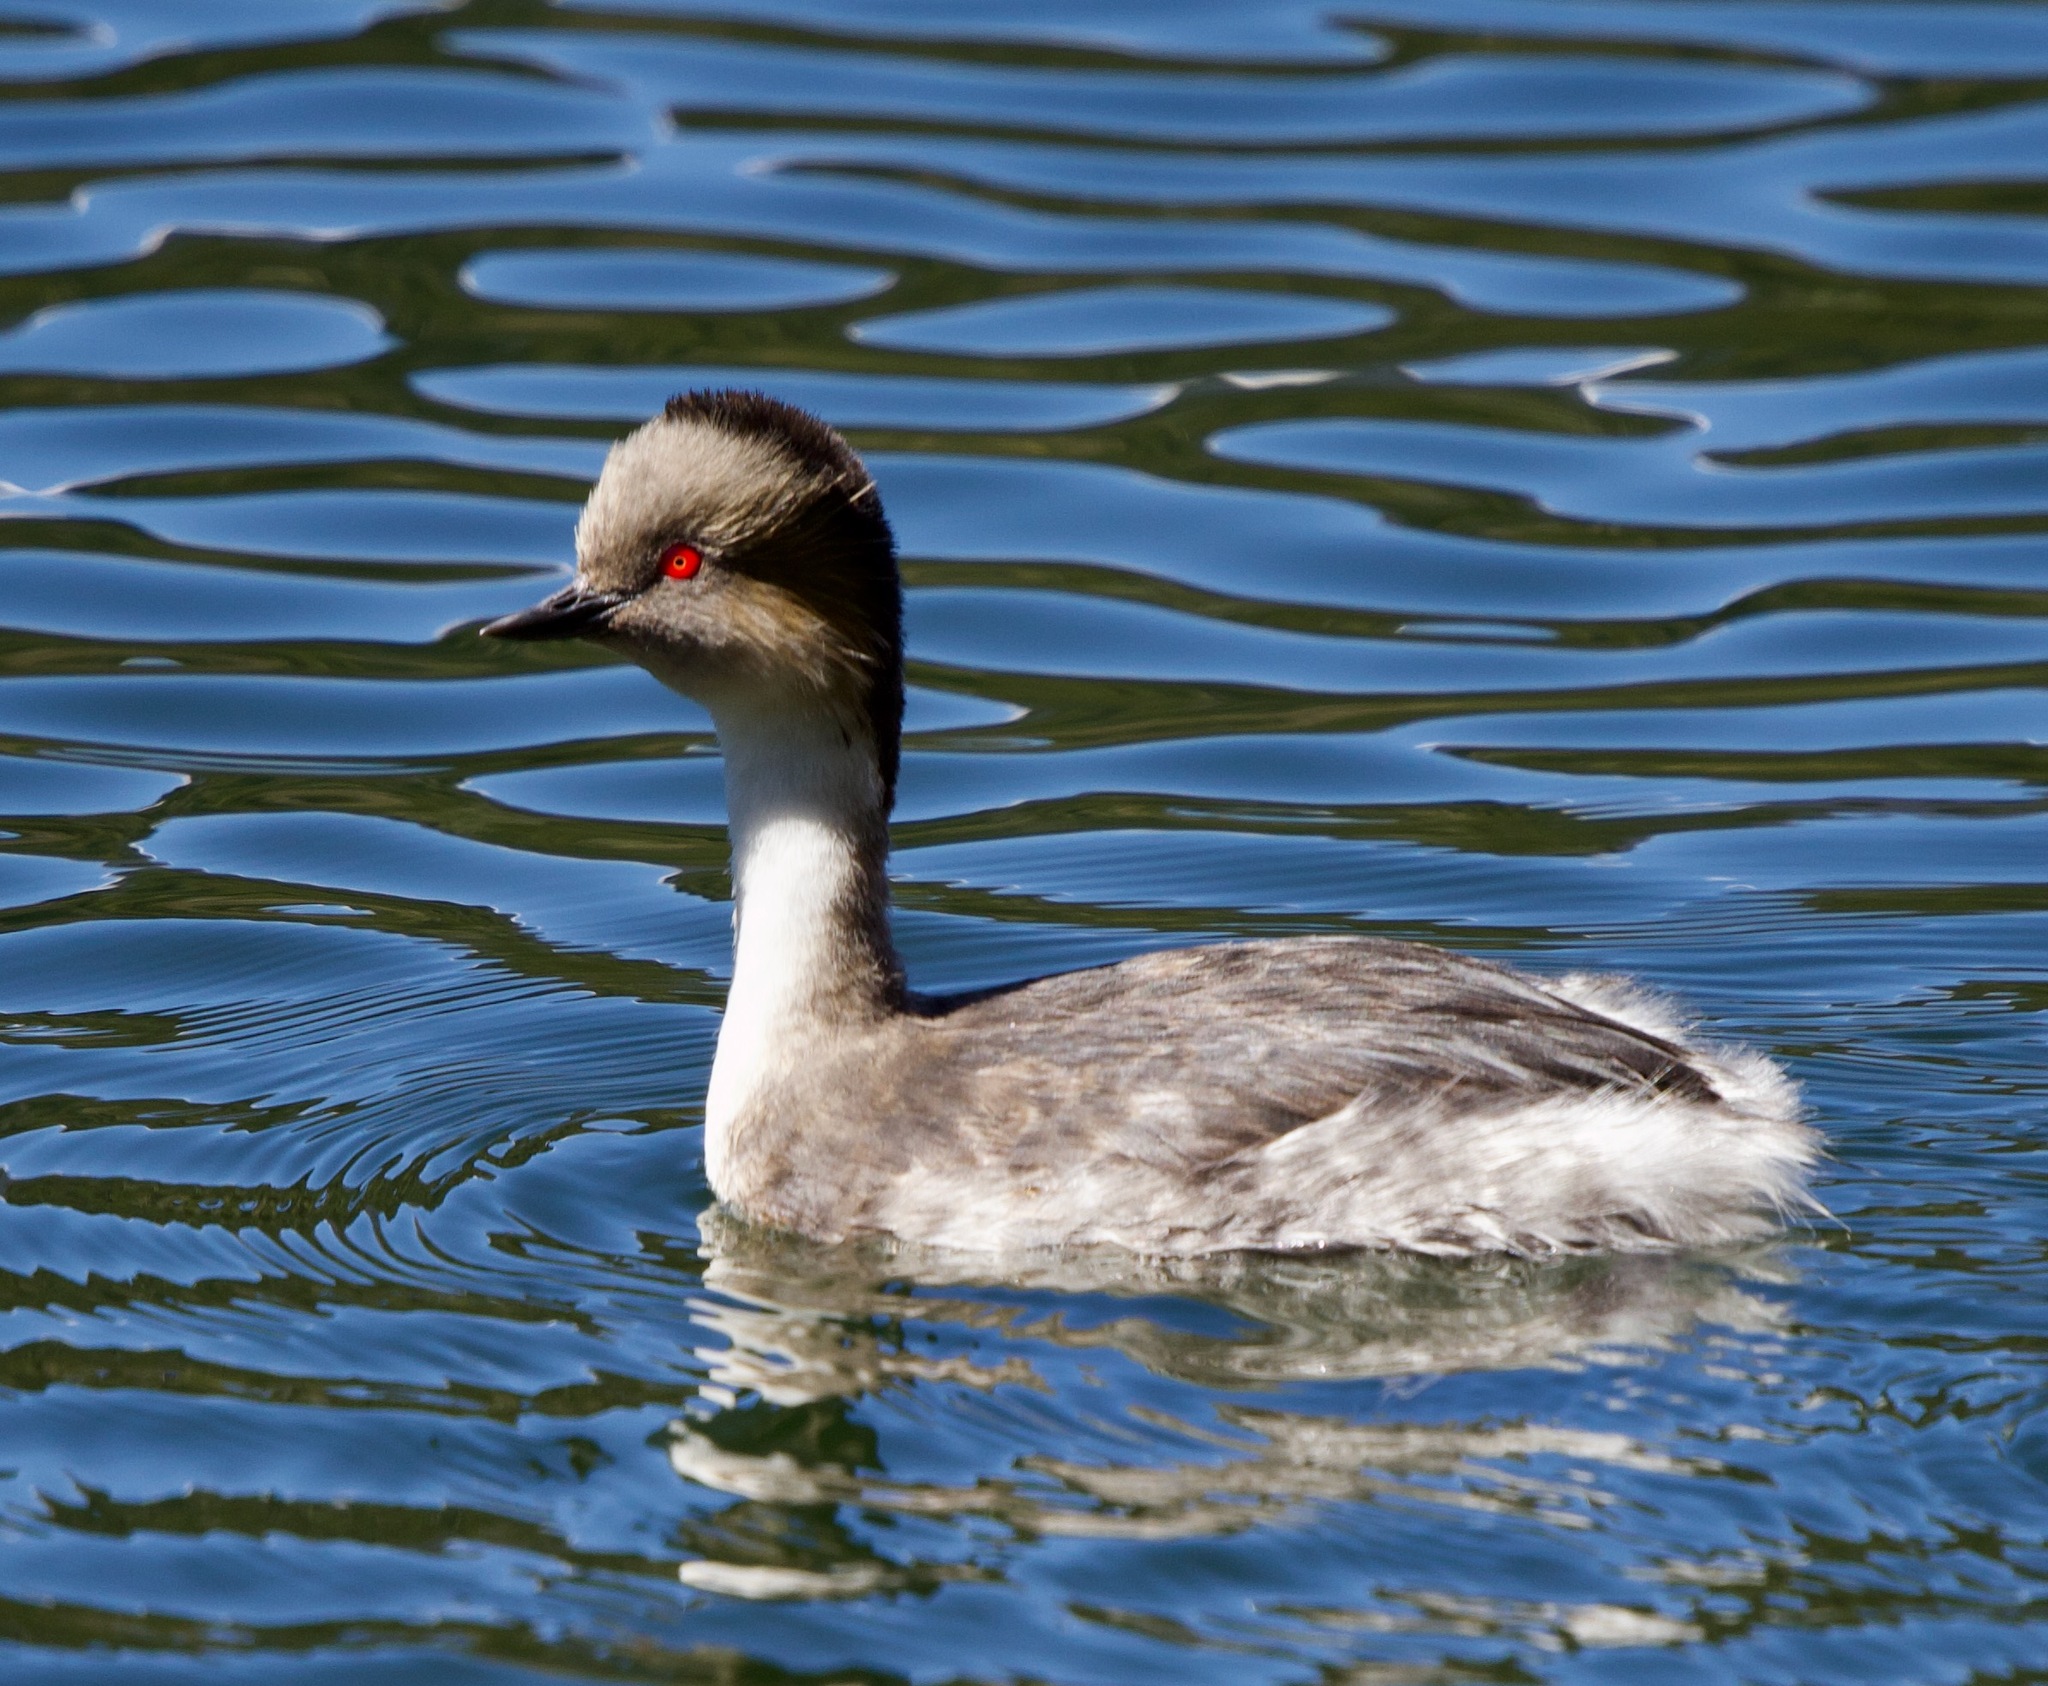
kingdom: Animalia
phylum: Chordata
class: Aves
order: Podicipediformes
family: Podicipedidae
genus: Podiceps
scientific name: Podiceps occipitalis
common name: Silvery grebe
